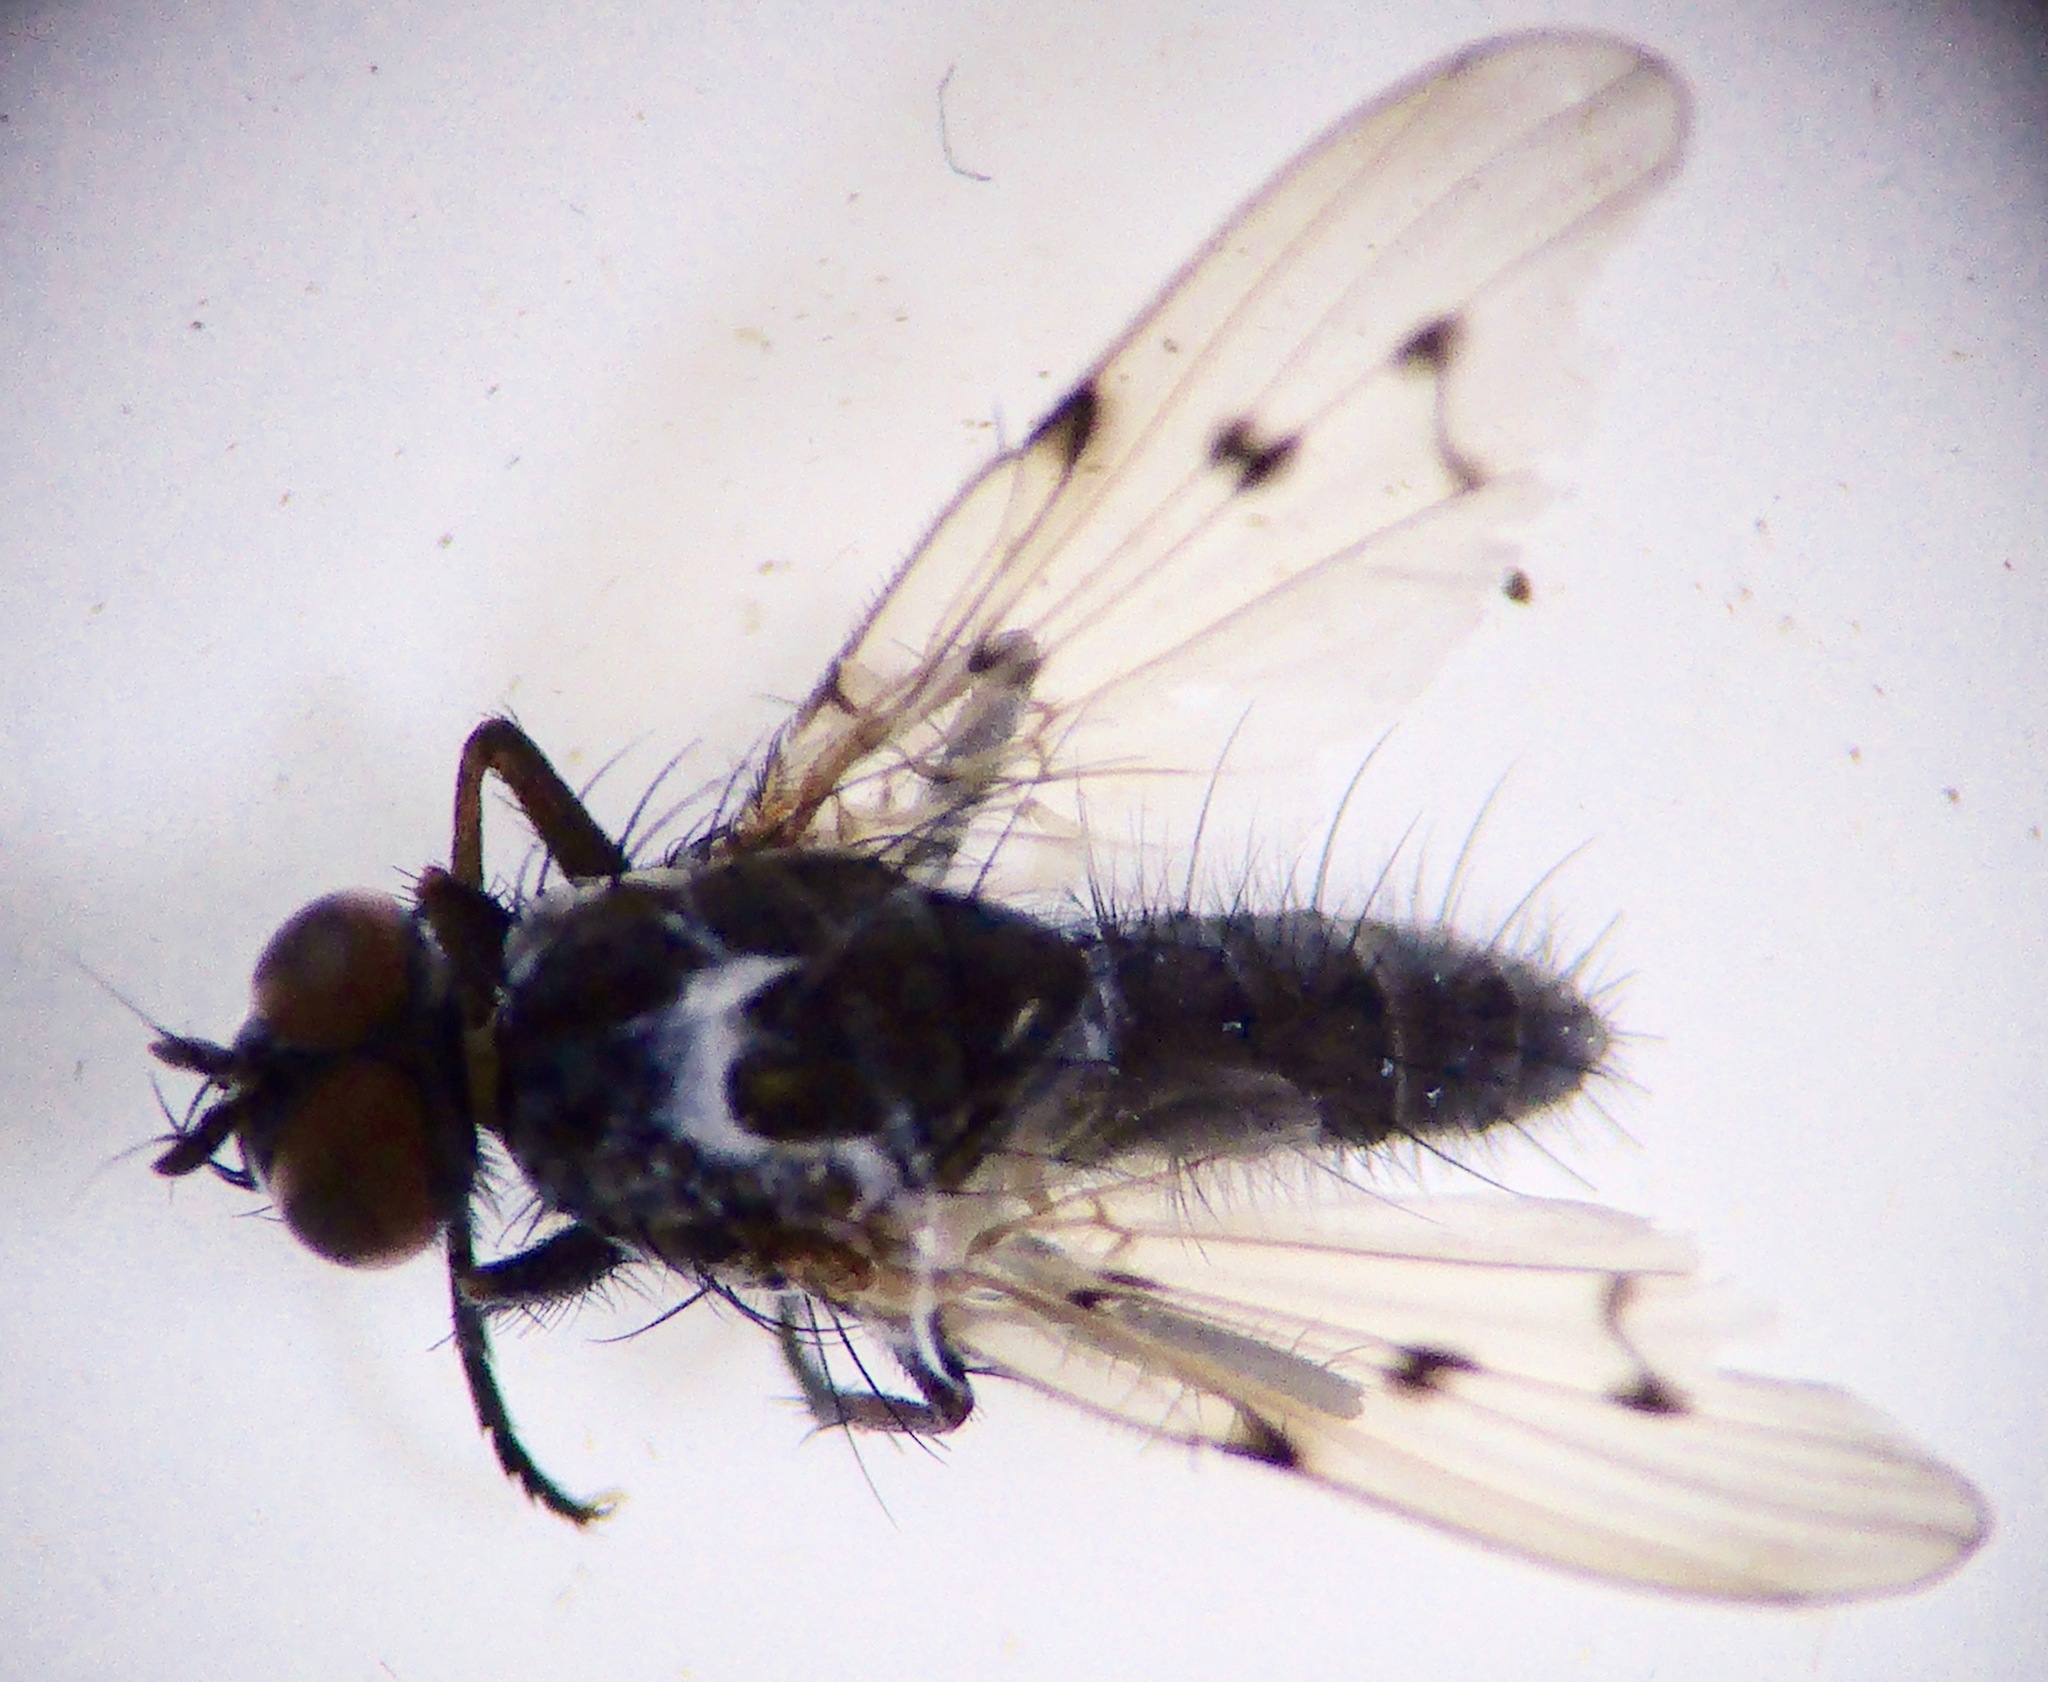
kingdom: Animalia
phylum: Arthropoda
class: Insecta
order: Diptera
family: Anthomyiidae
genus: Anthomyia
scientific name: Anthomyia punctipennis
